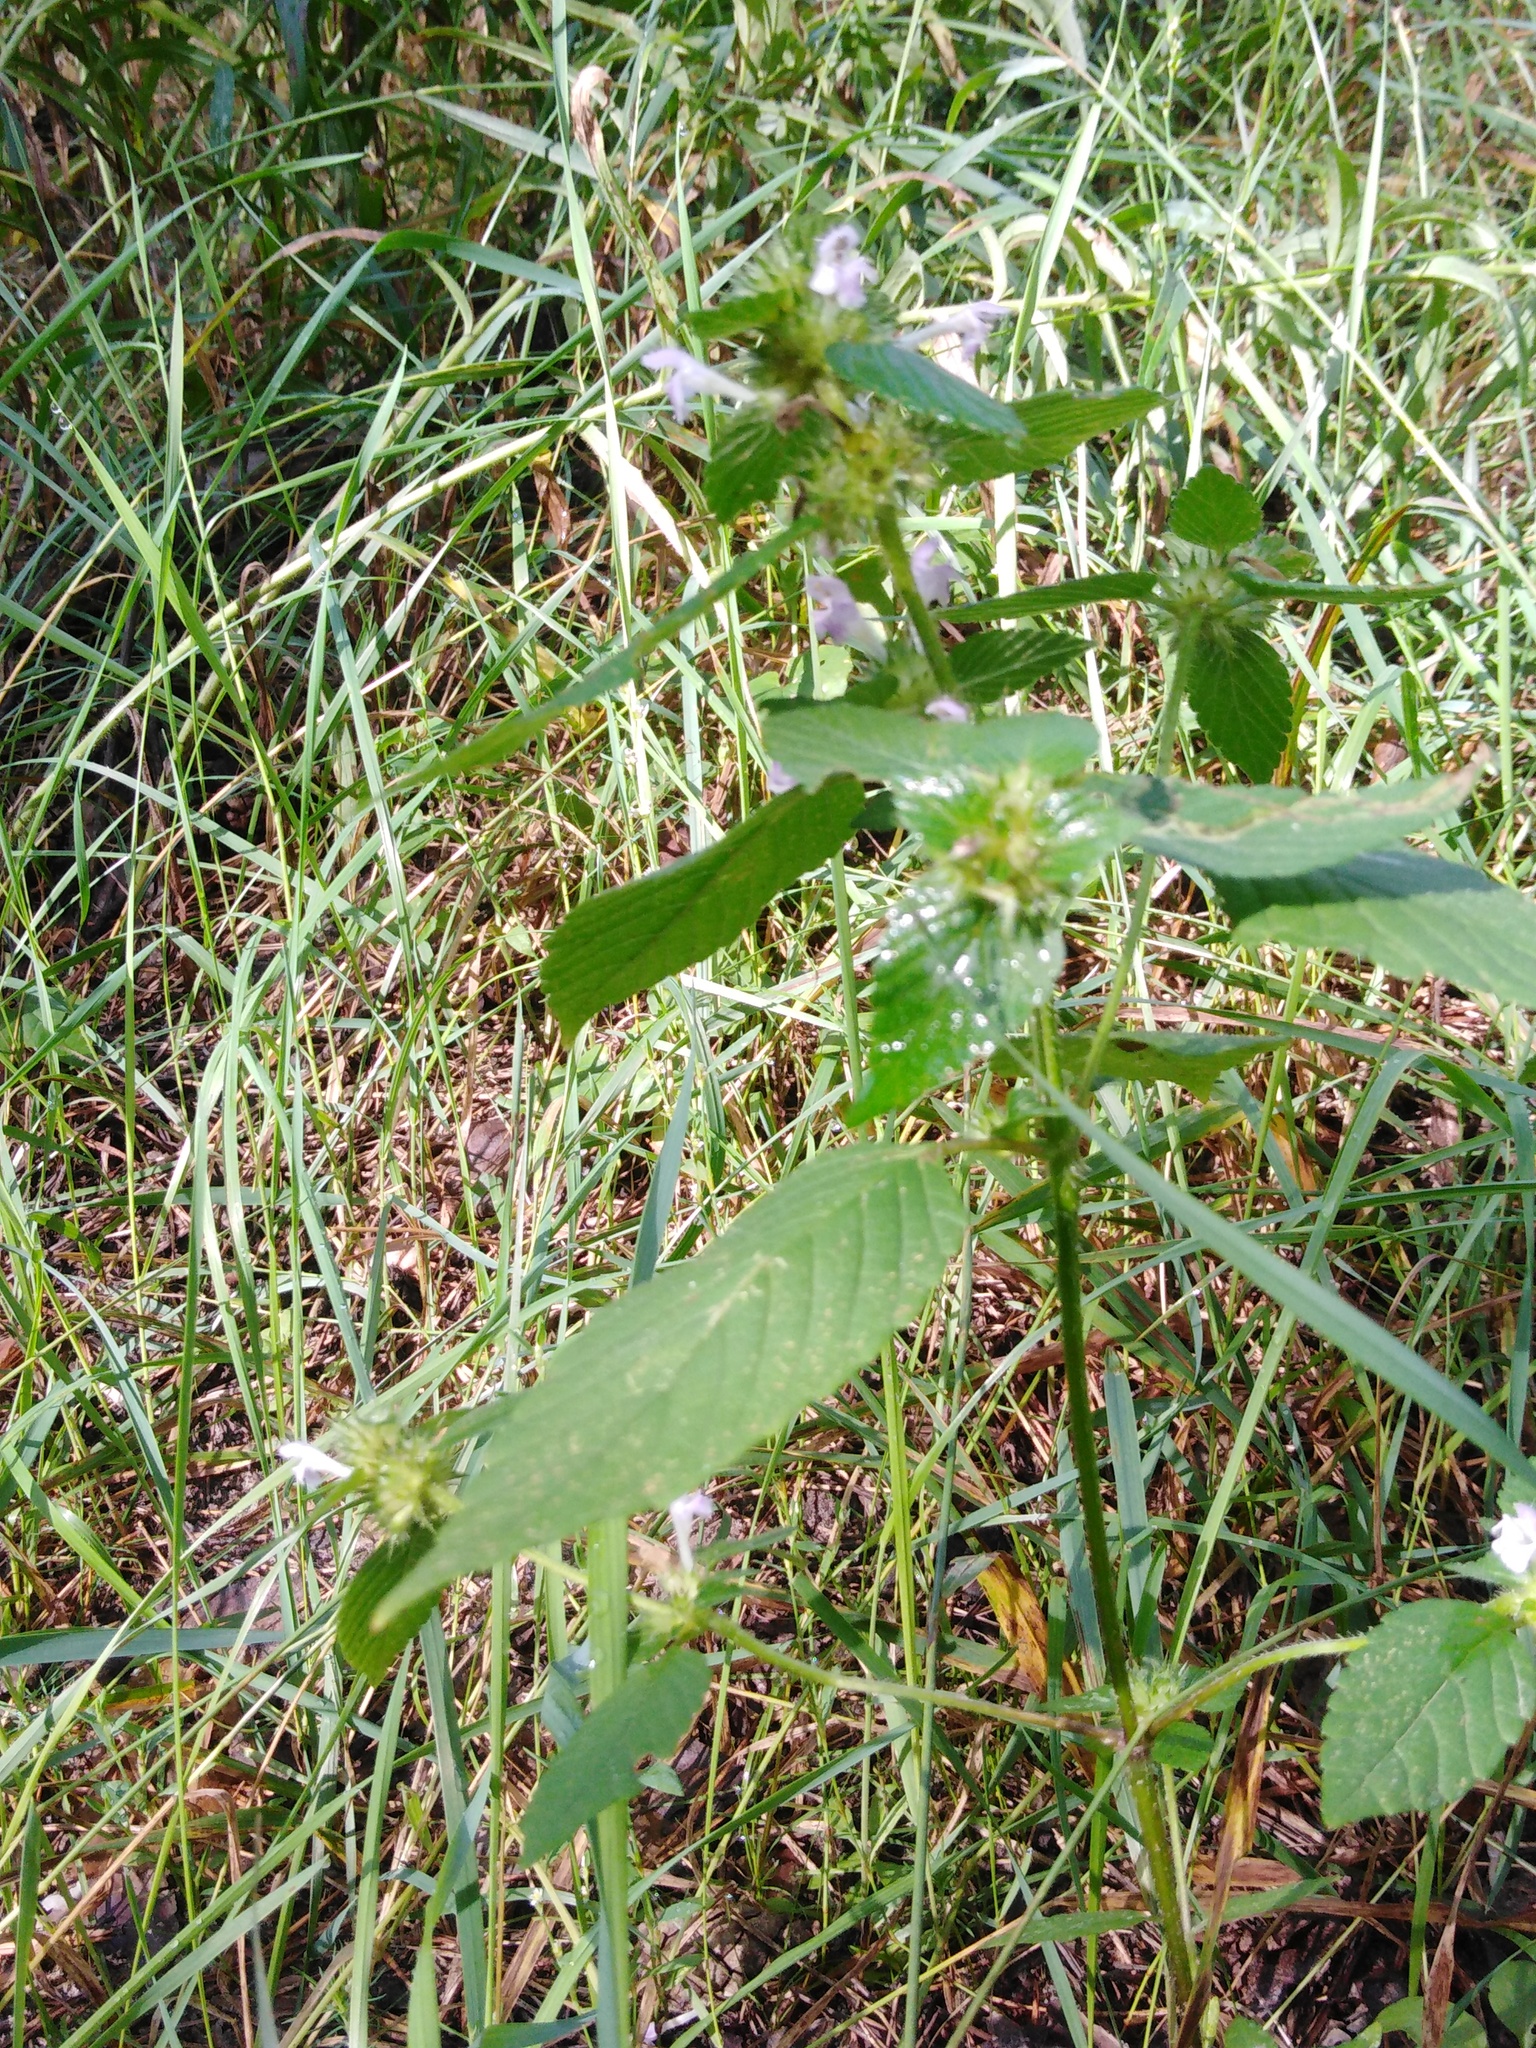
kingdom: Plantae
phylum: Tracheophyta
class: Magnoliopsida
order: Lamiales
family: Lamiaceae
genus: Galeopsis
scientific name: Galeopsis bifida
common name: Bifid hemp-nettle
